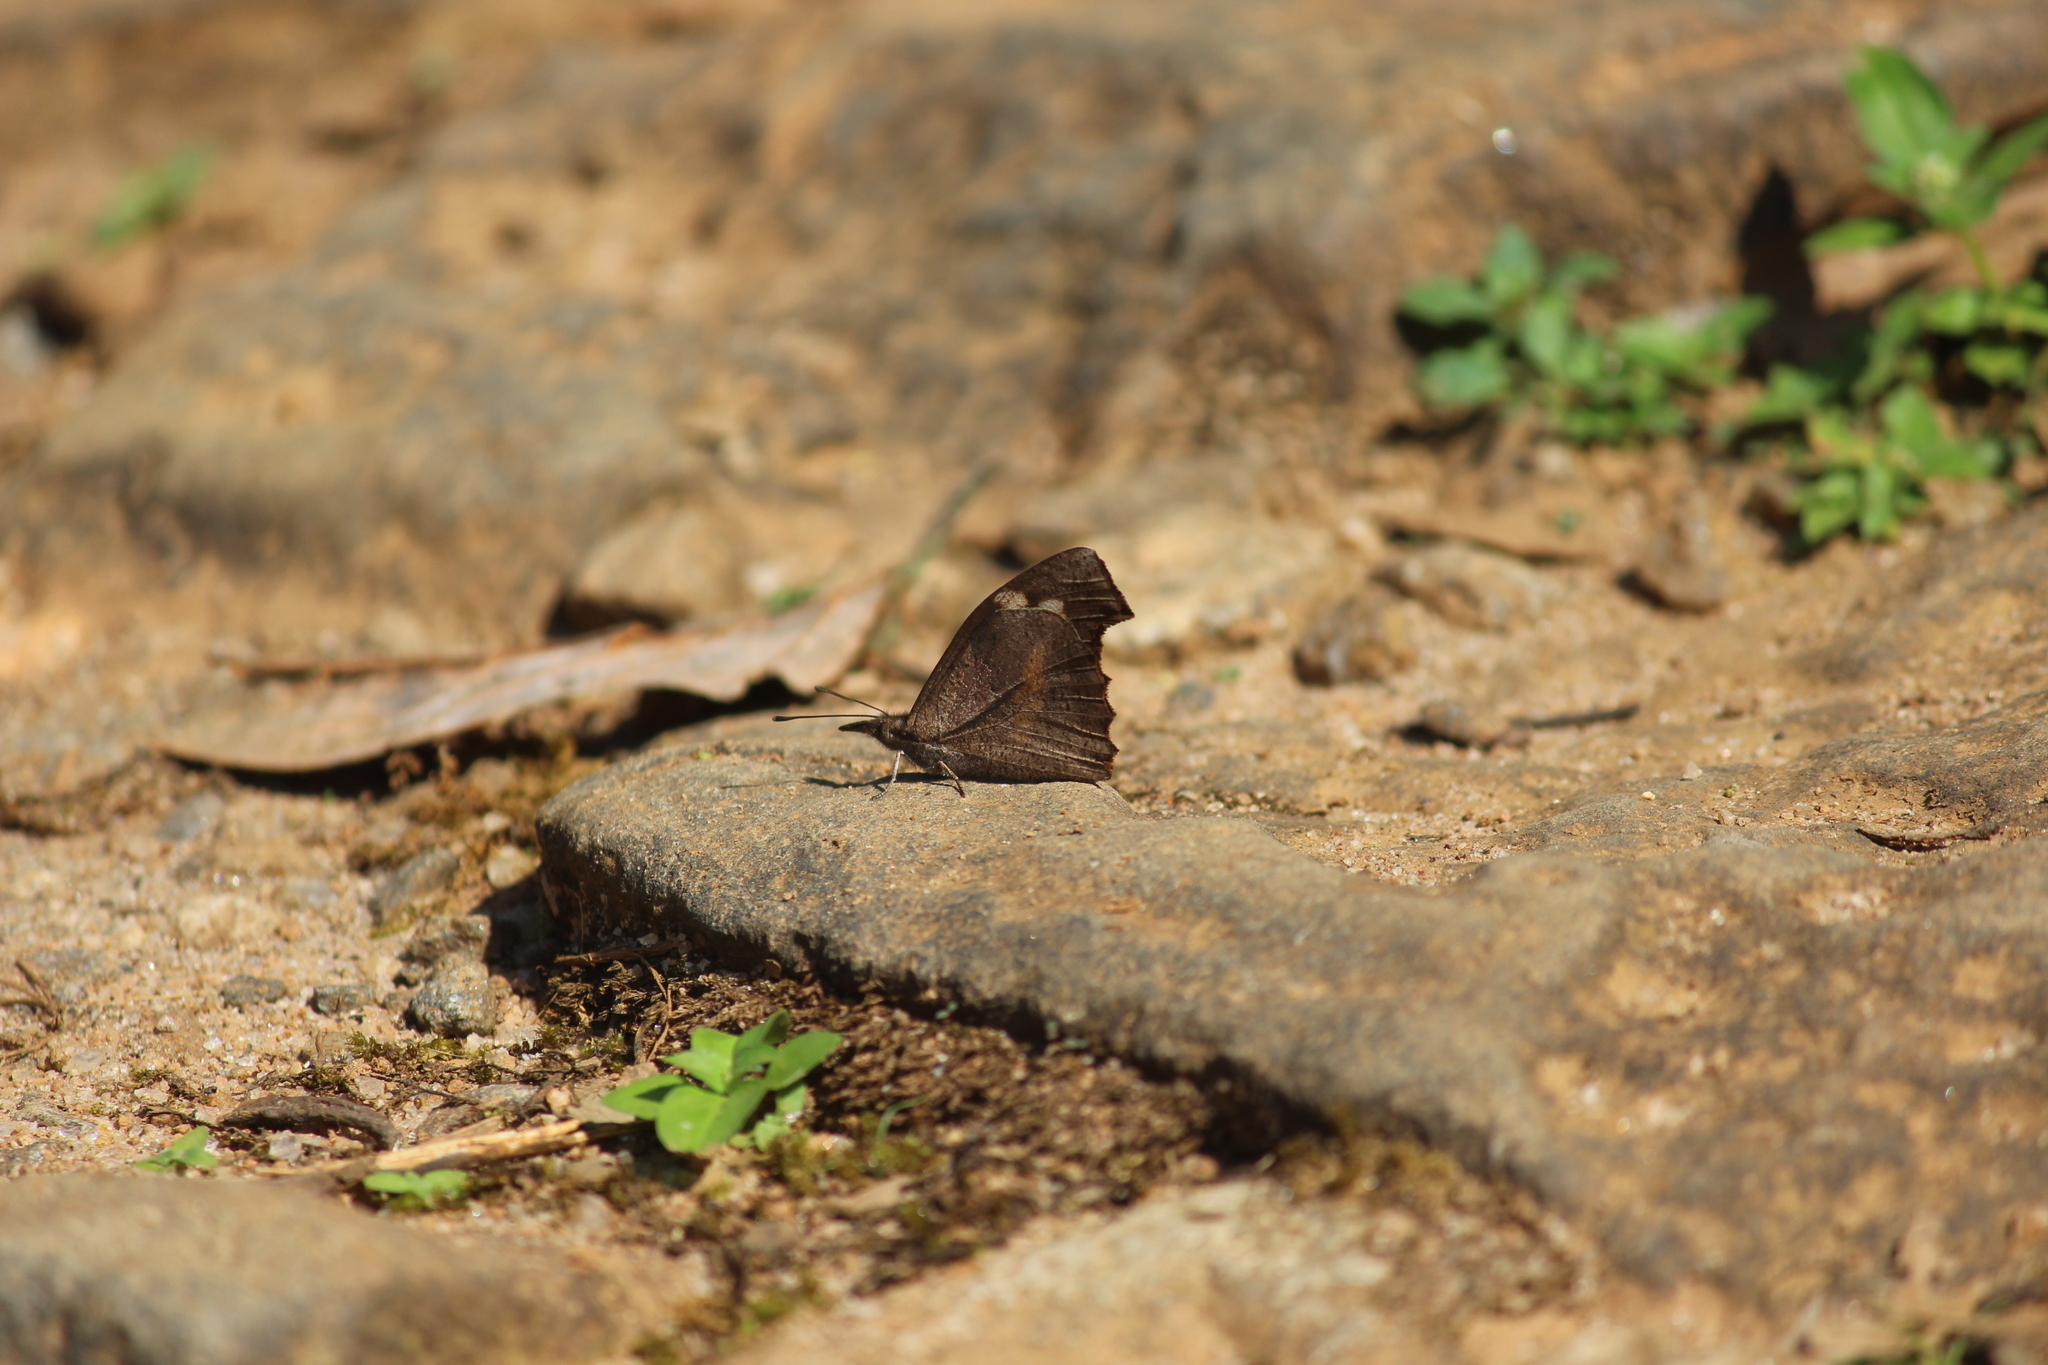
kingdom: Animalia
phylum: Arthropoda
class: Insecta
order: Lepidoptera
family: Nymphalidae
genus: Libythea
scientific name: Libythea myrrha
